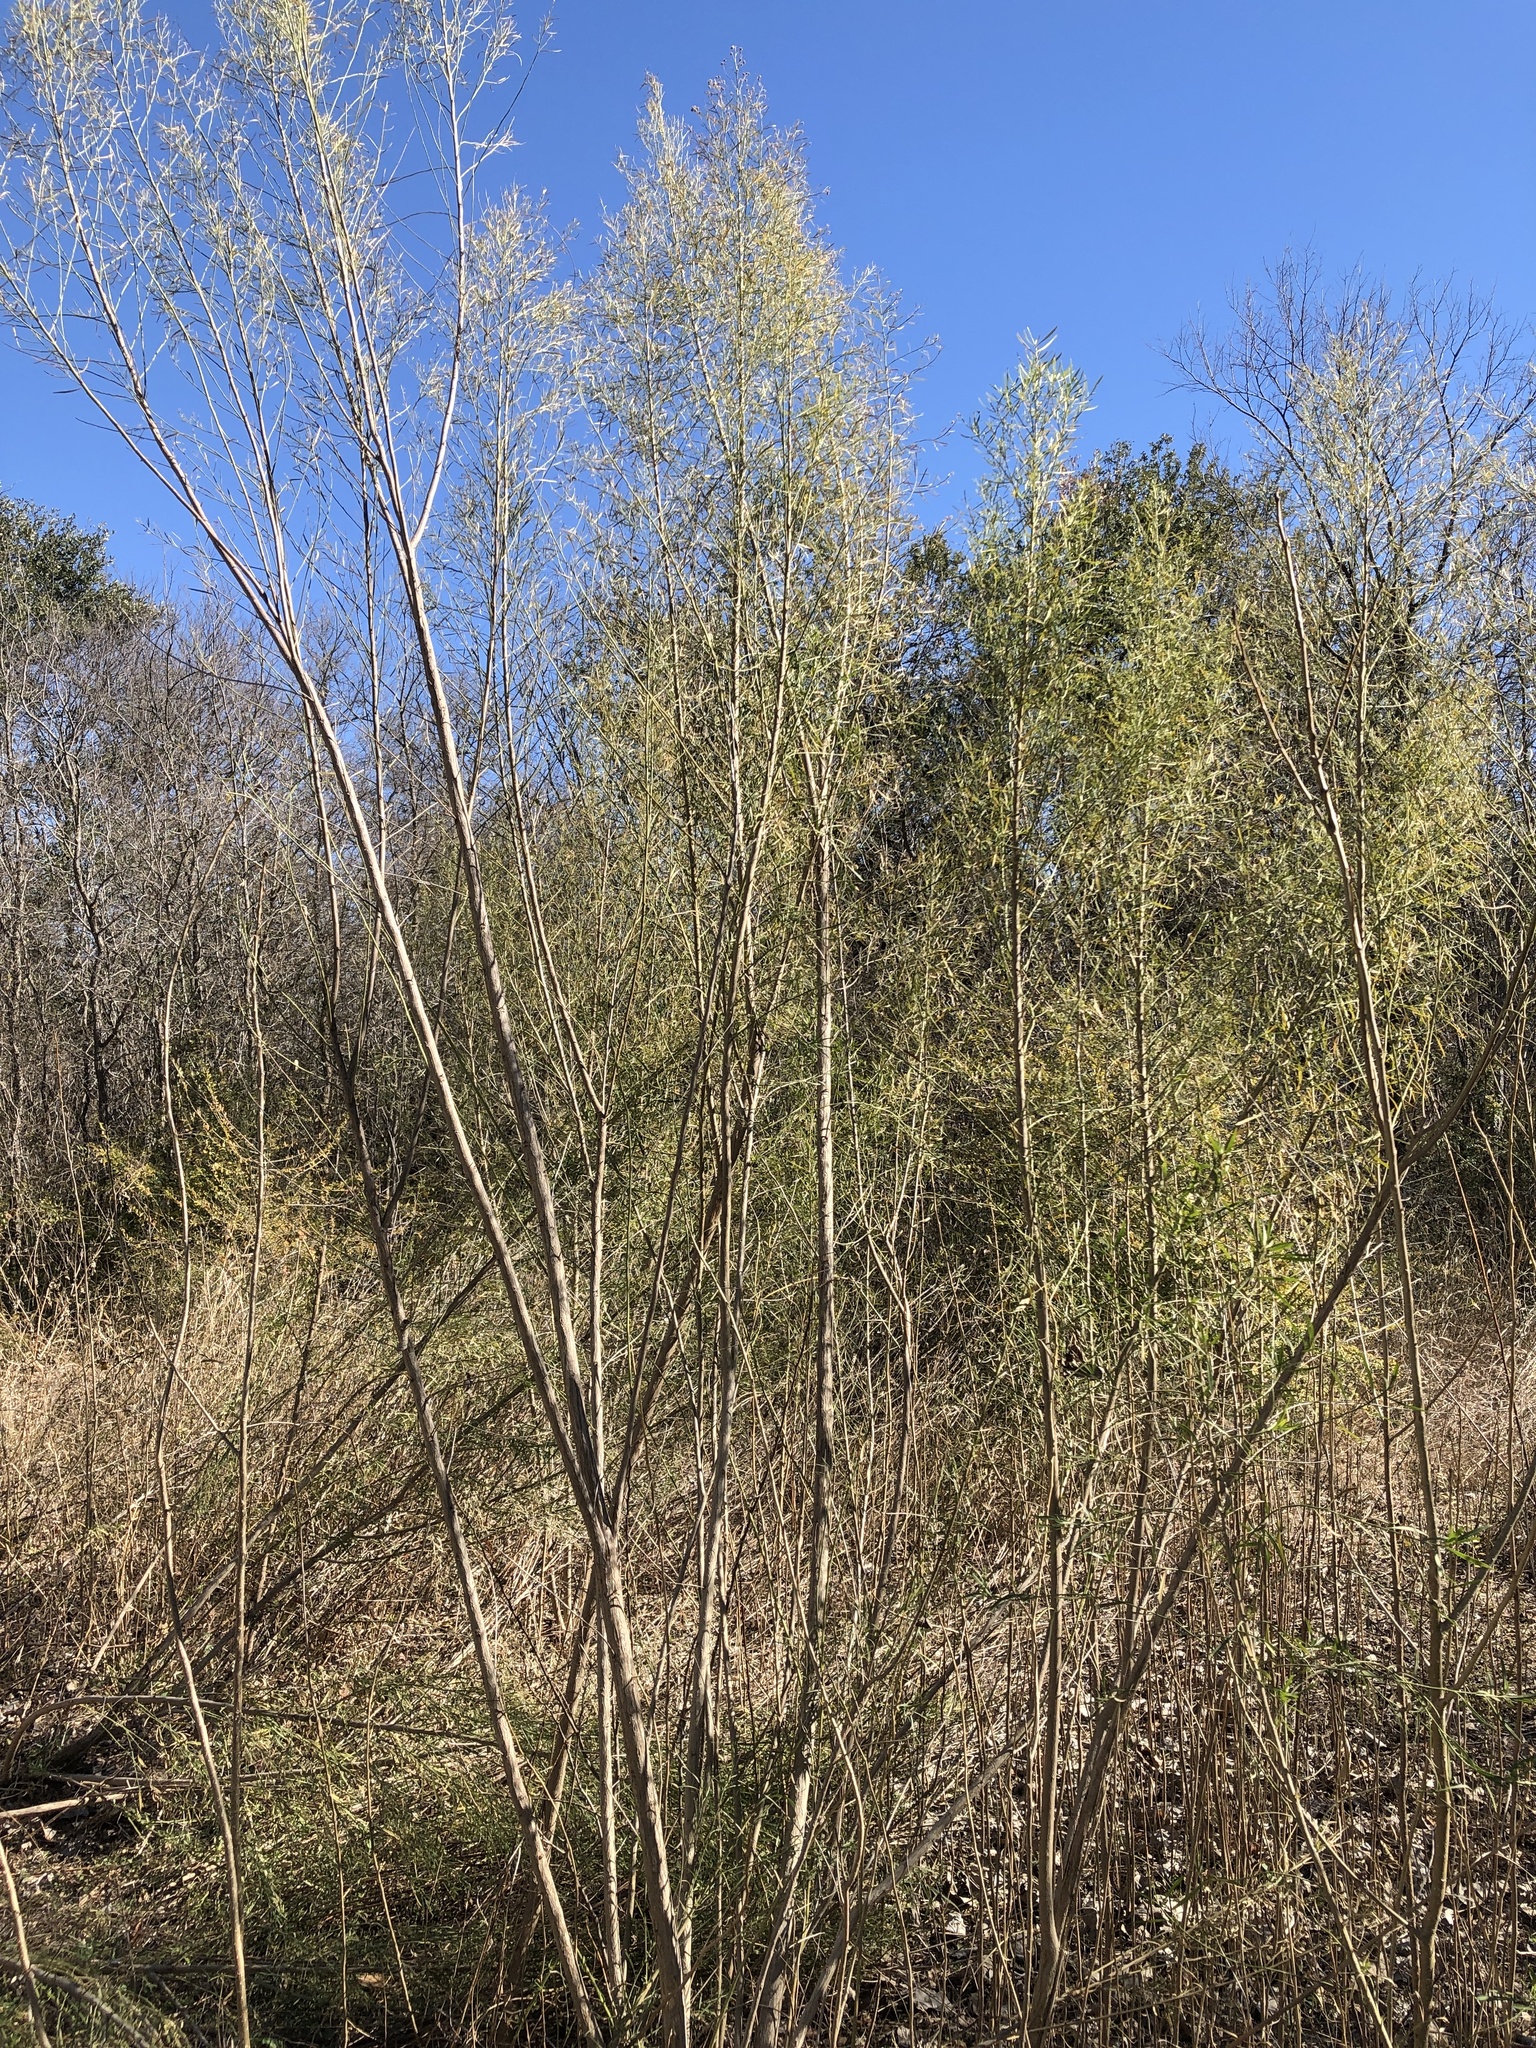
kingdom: Plantae
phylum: Tracheophyta
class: Magnoliopsida
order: Asterales
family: Asteraceae
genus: Baccharis
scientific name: Baccharis neglecta
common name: Roosevelt-weed
